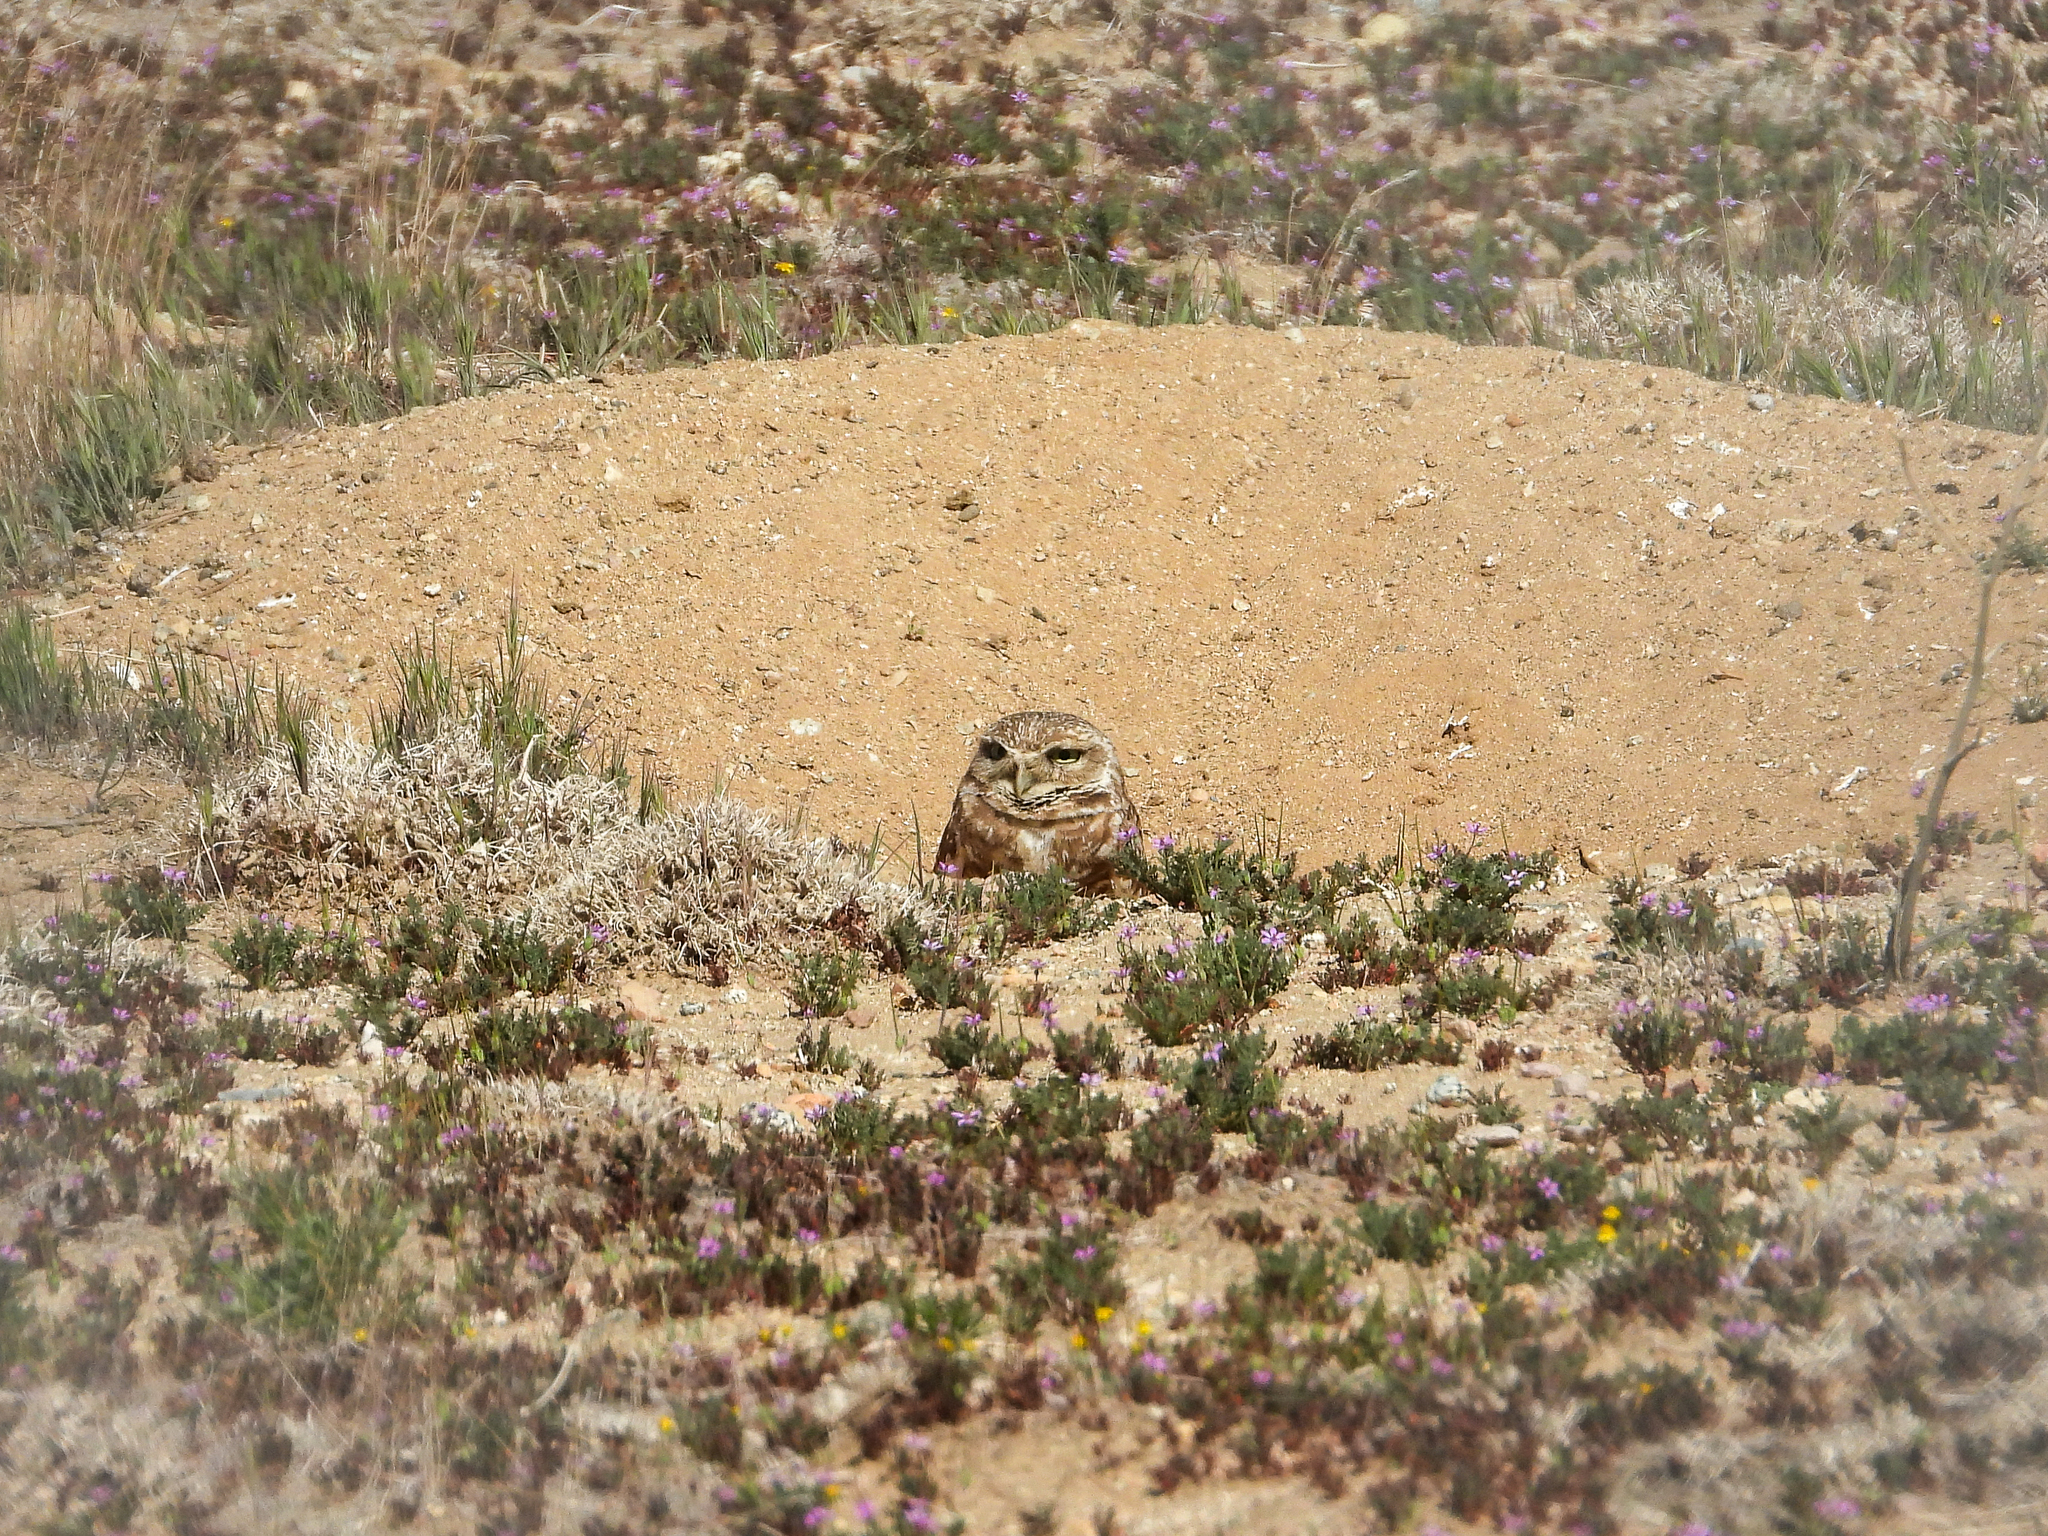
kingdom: Animalia
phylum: Chordata
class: Aves
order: Strigiformes
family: Strigidae
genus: Athene
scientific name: Athene cunicularia
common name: Burrowing owl
